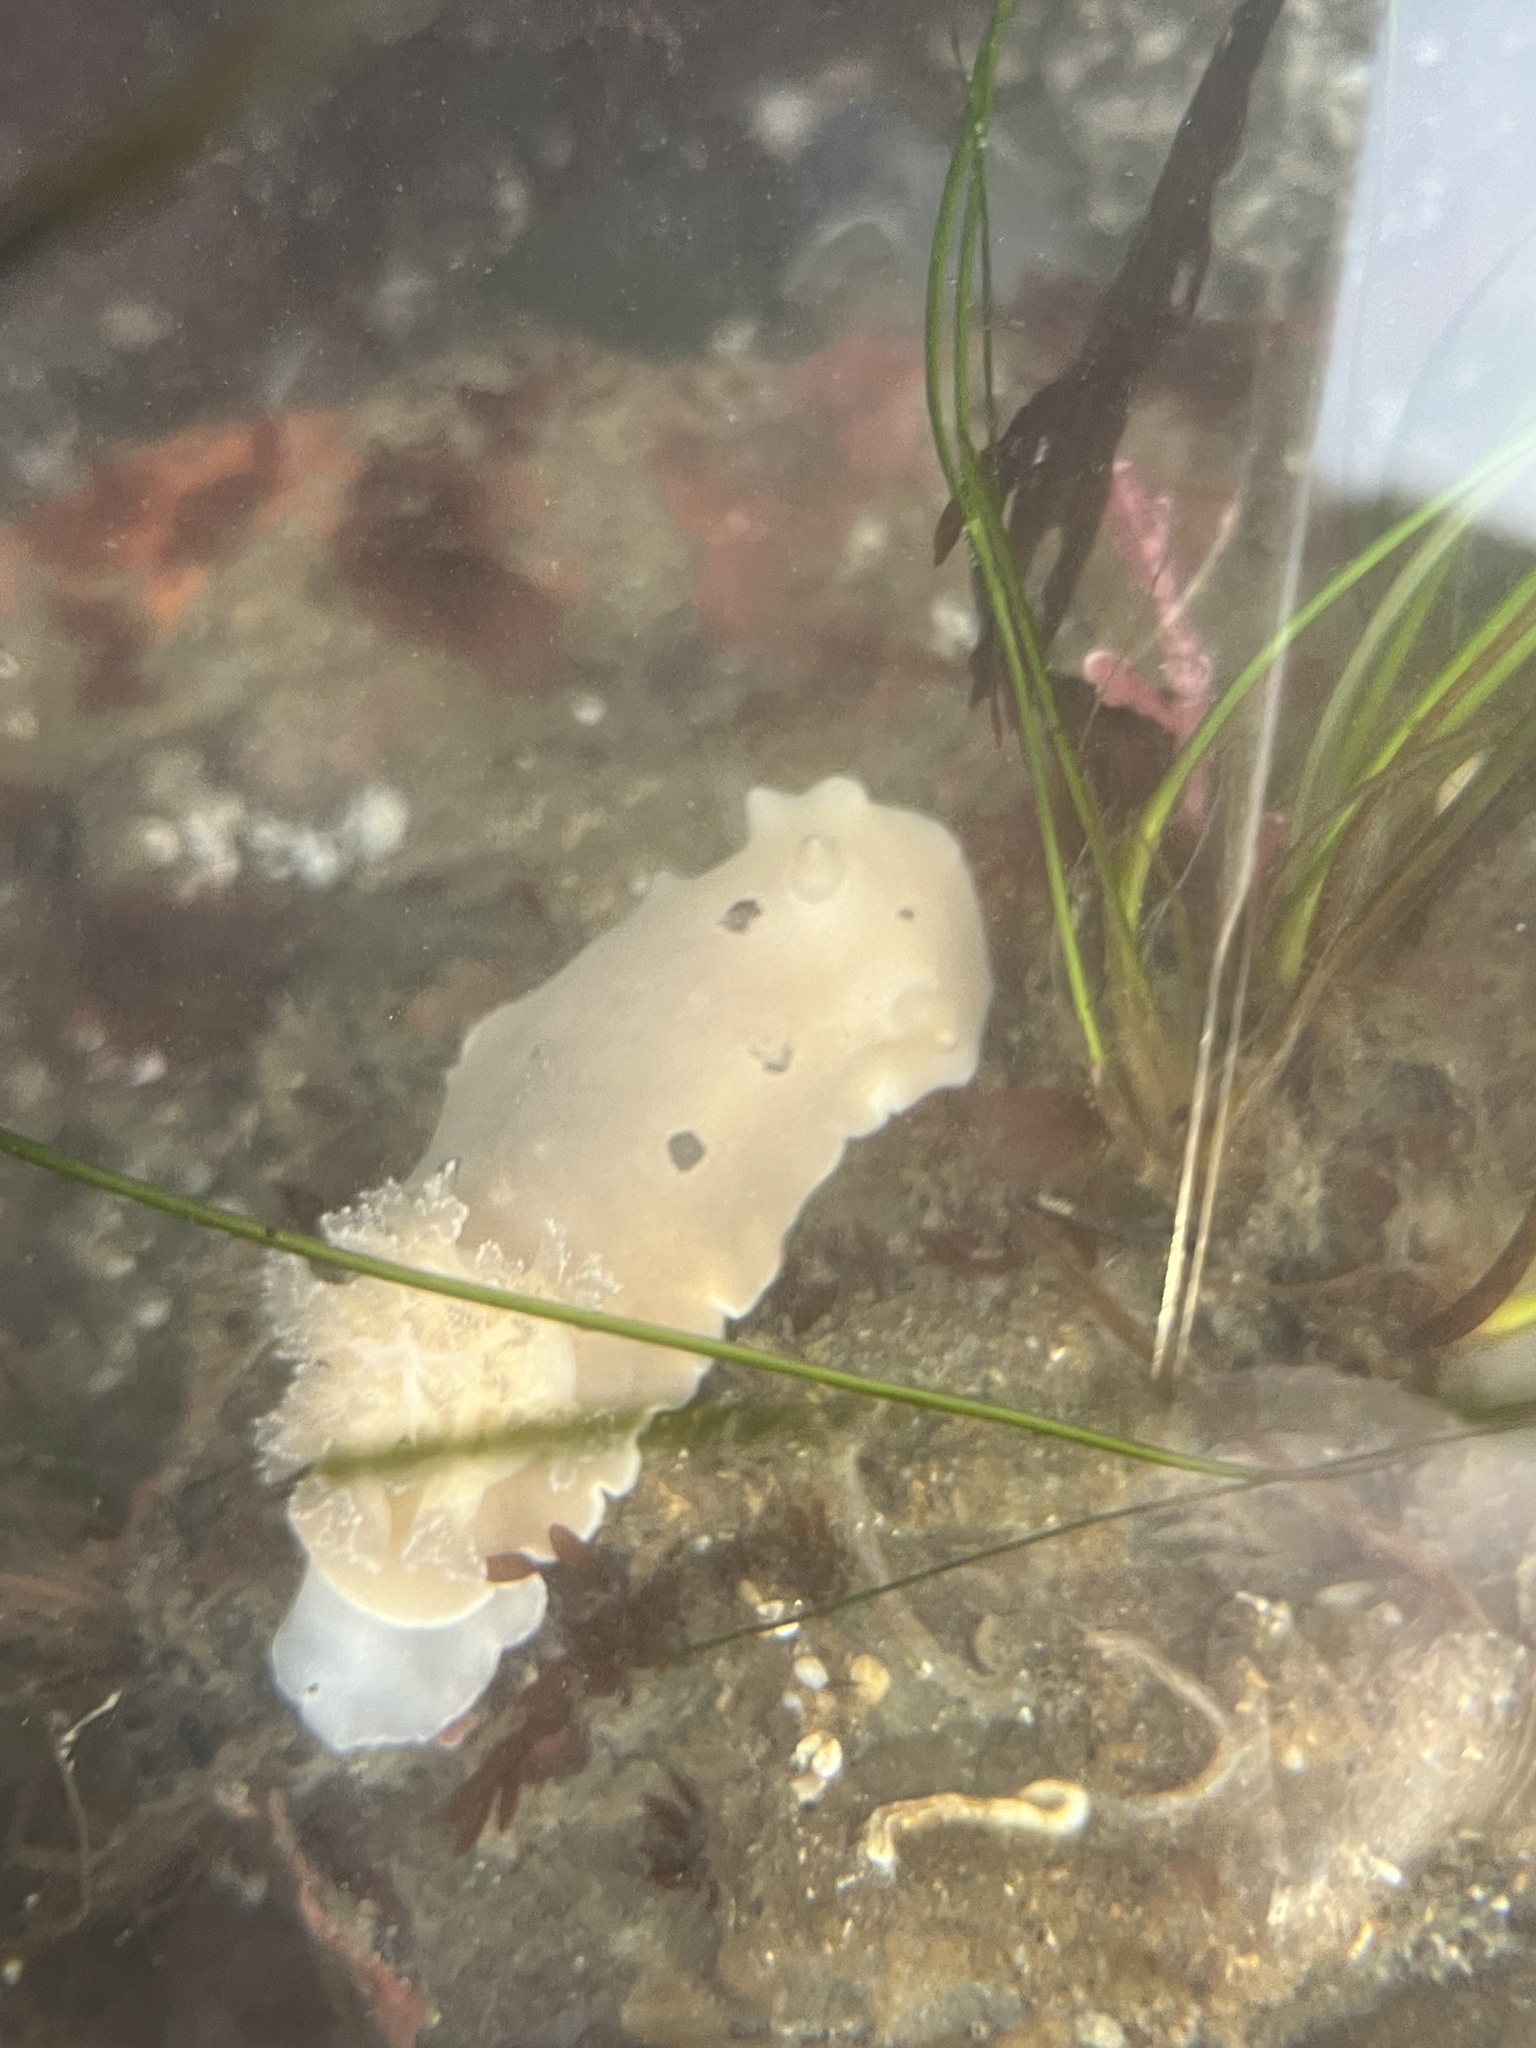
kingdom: Animalia
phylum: Mollusca
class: Gastropoda
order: Nudibranchia
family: Discodorididae
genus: Diaulula
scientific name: Diaulula sandiegensis
